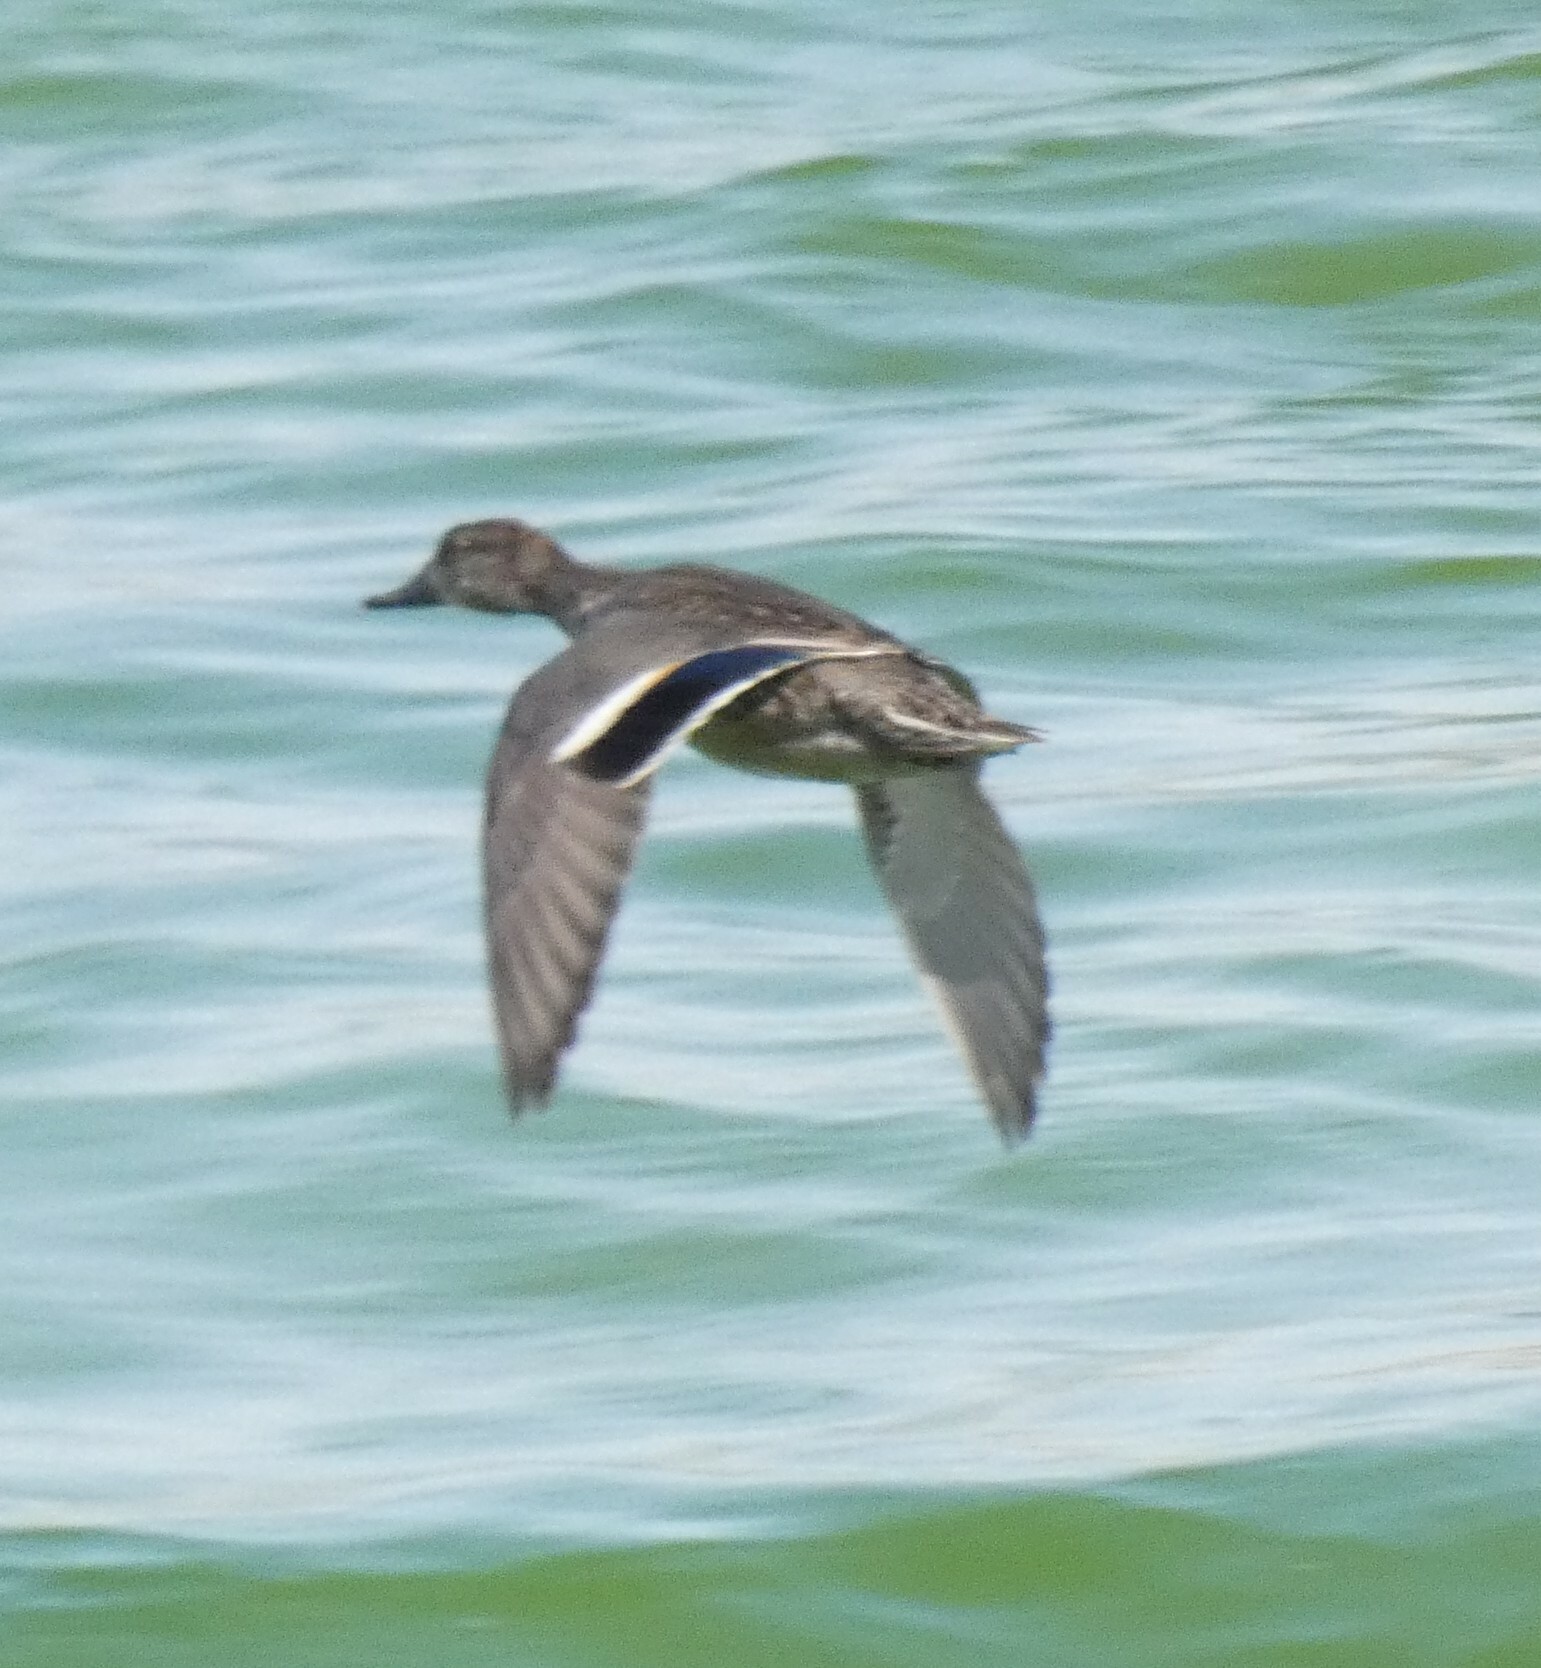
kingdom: Animalia
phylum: Chordata
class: Aves
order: Anseriformes
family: Anatidae
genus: Anas
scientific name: Anas acuta
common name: Northern pintail
